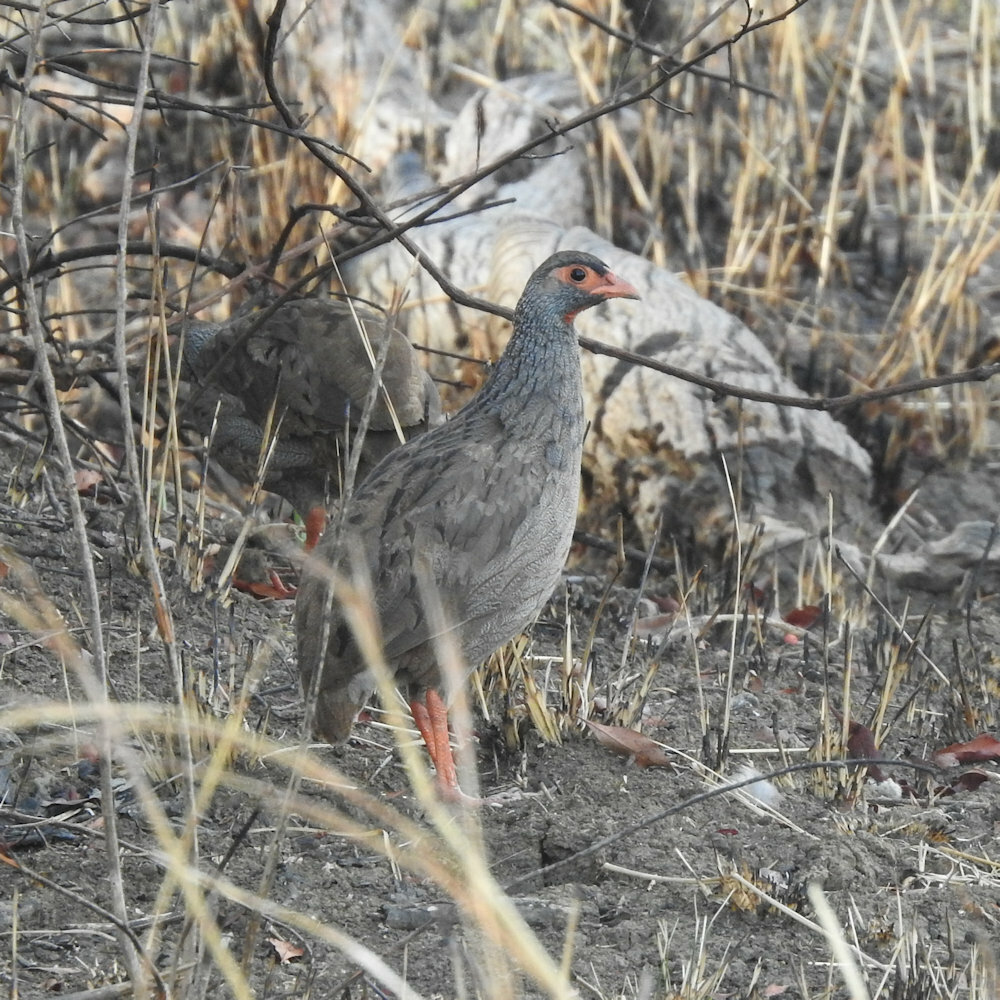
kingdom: Animalia
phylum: Chordata
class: Aves
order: Galliformes
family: Phasianidae
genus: Pternistis
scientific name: Pternistis afer
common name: Red-necked spurfowl
